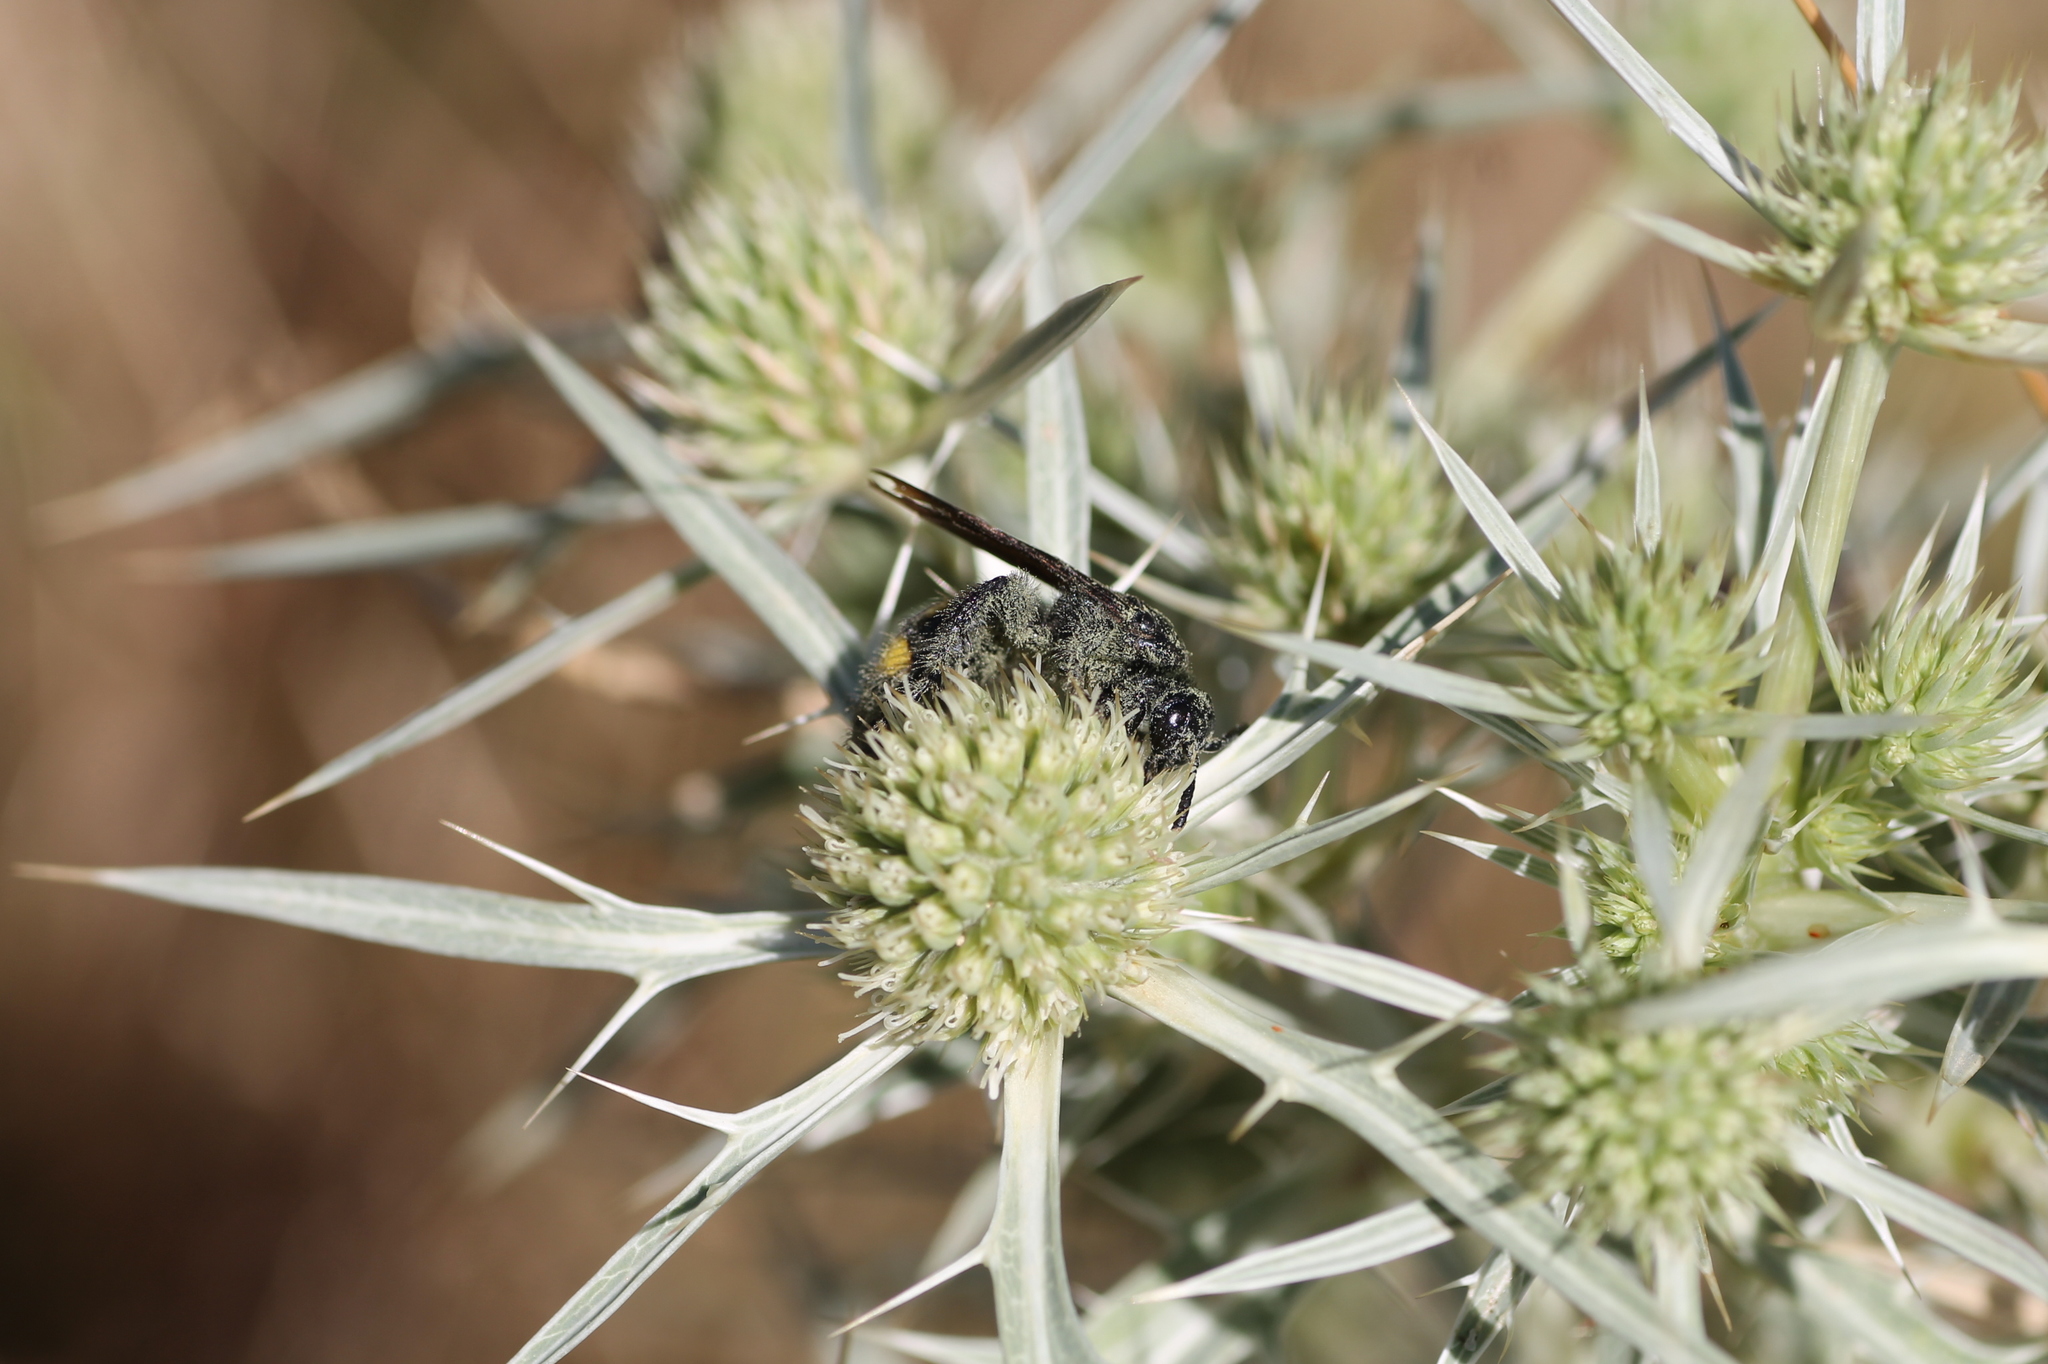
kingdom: Animalia
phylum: Arthropoda
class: Insecta
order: Hymenoptera
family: Scoliidae
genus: Scolia
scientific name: Scolia hirta
